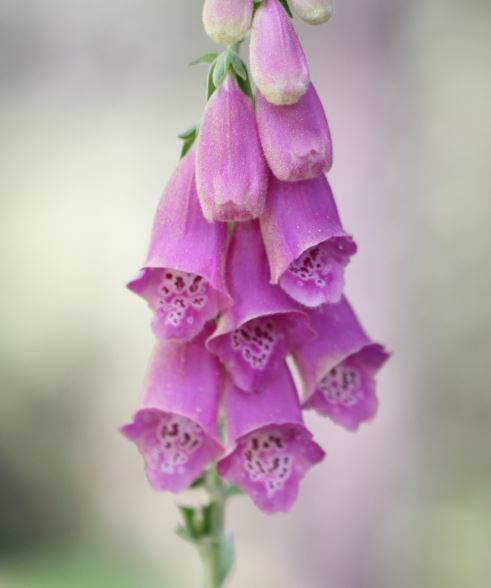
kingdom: Plantae
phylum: Tracheophyta
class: Magnoliopsida
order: Lamiales
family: Plantaginaceae
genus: Digitalis
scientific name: Digitalis purpurea
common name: Foxglove
